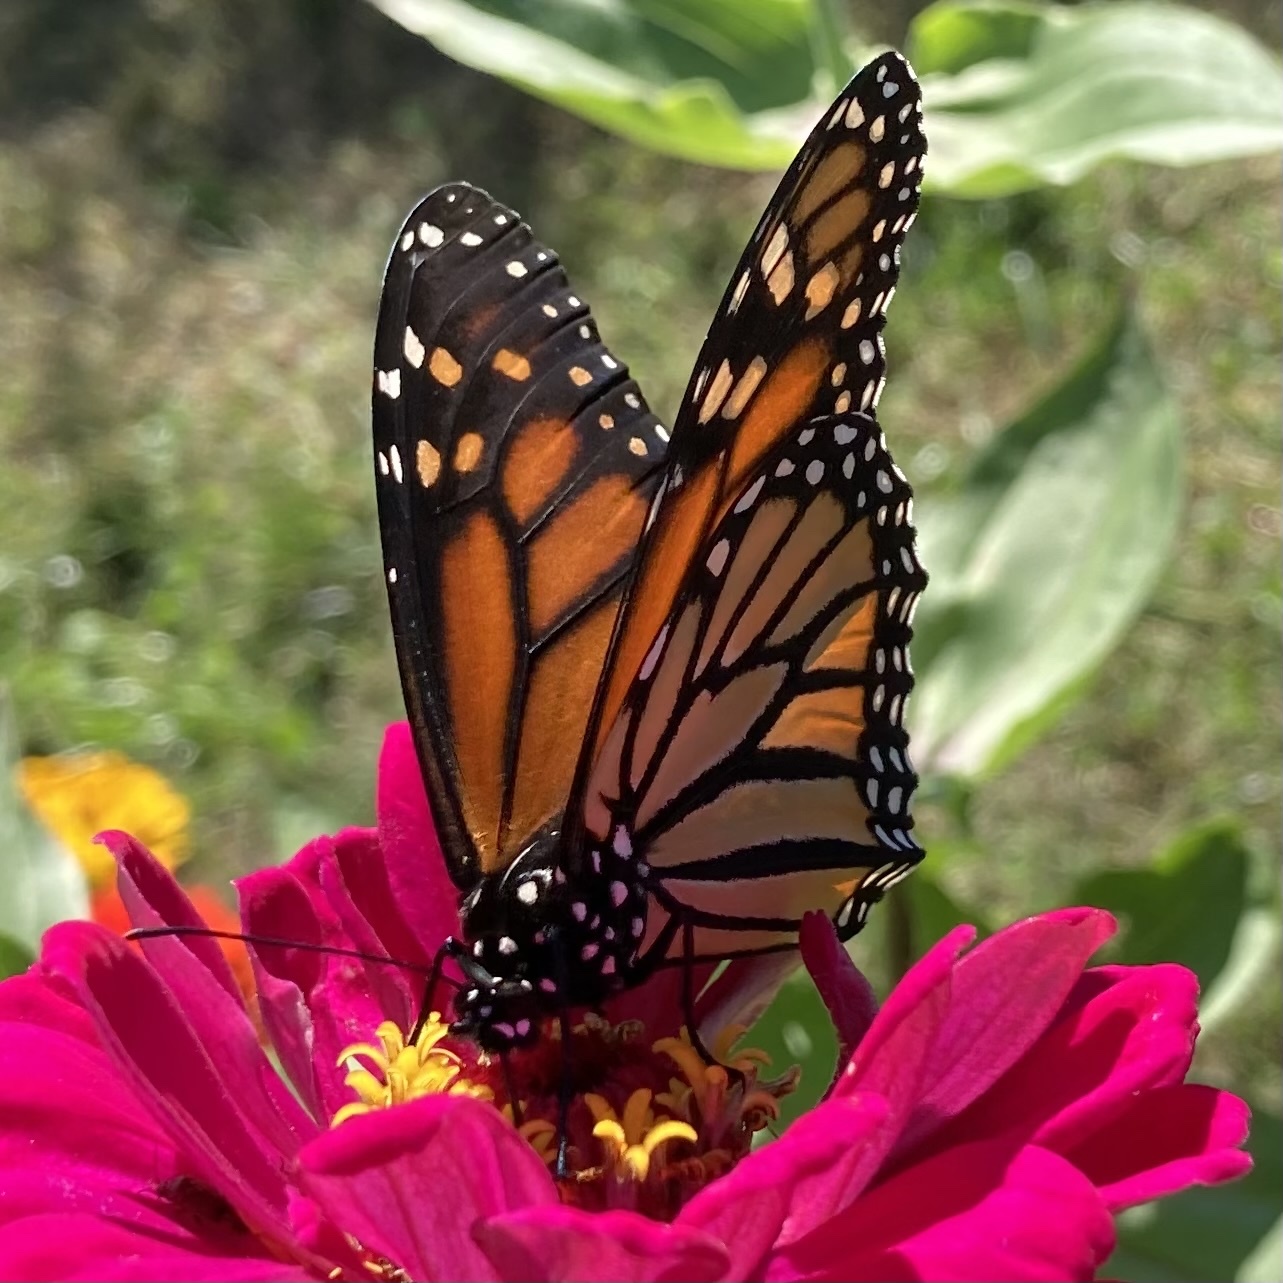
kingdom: Animalia
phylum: Arthropoda
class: Insecta
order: Lepidoptera
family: Nymphalidae
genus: Danaus
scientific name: Danaus plexippus
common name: Monarch
